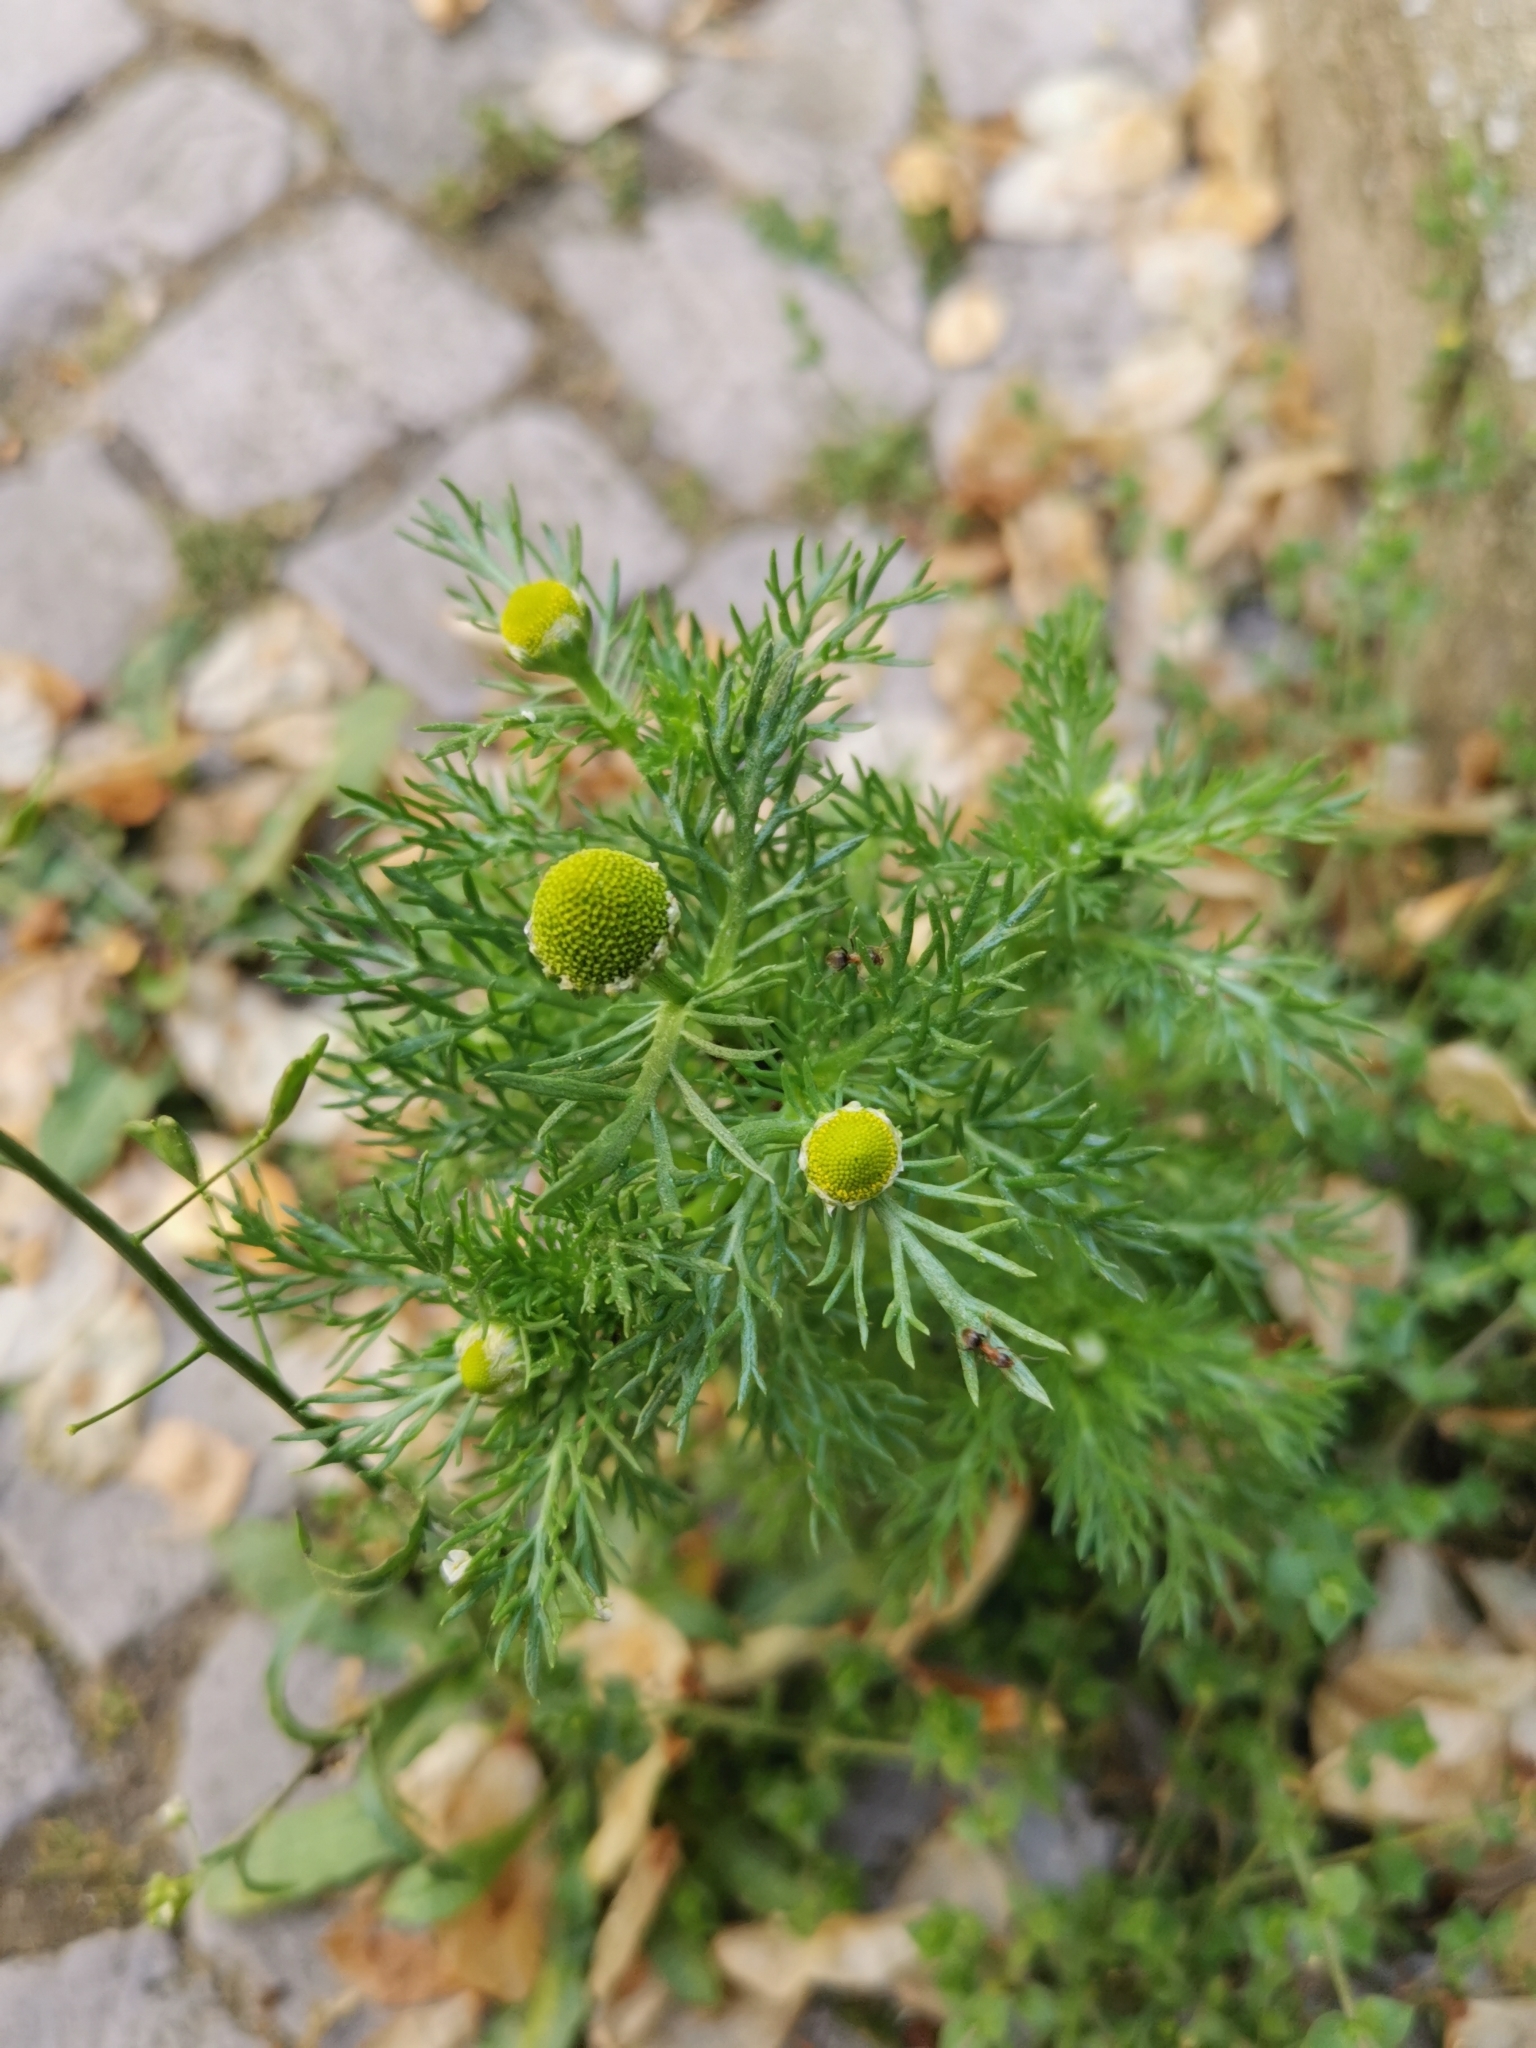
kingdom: Plantae
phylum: Tracheophyta
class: Magnoliopsida
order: Asterales
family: Asteraceae
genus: Matricaria
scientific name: Matricaria discoidea
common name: Disc mayweed
